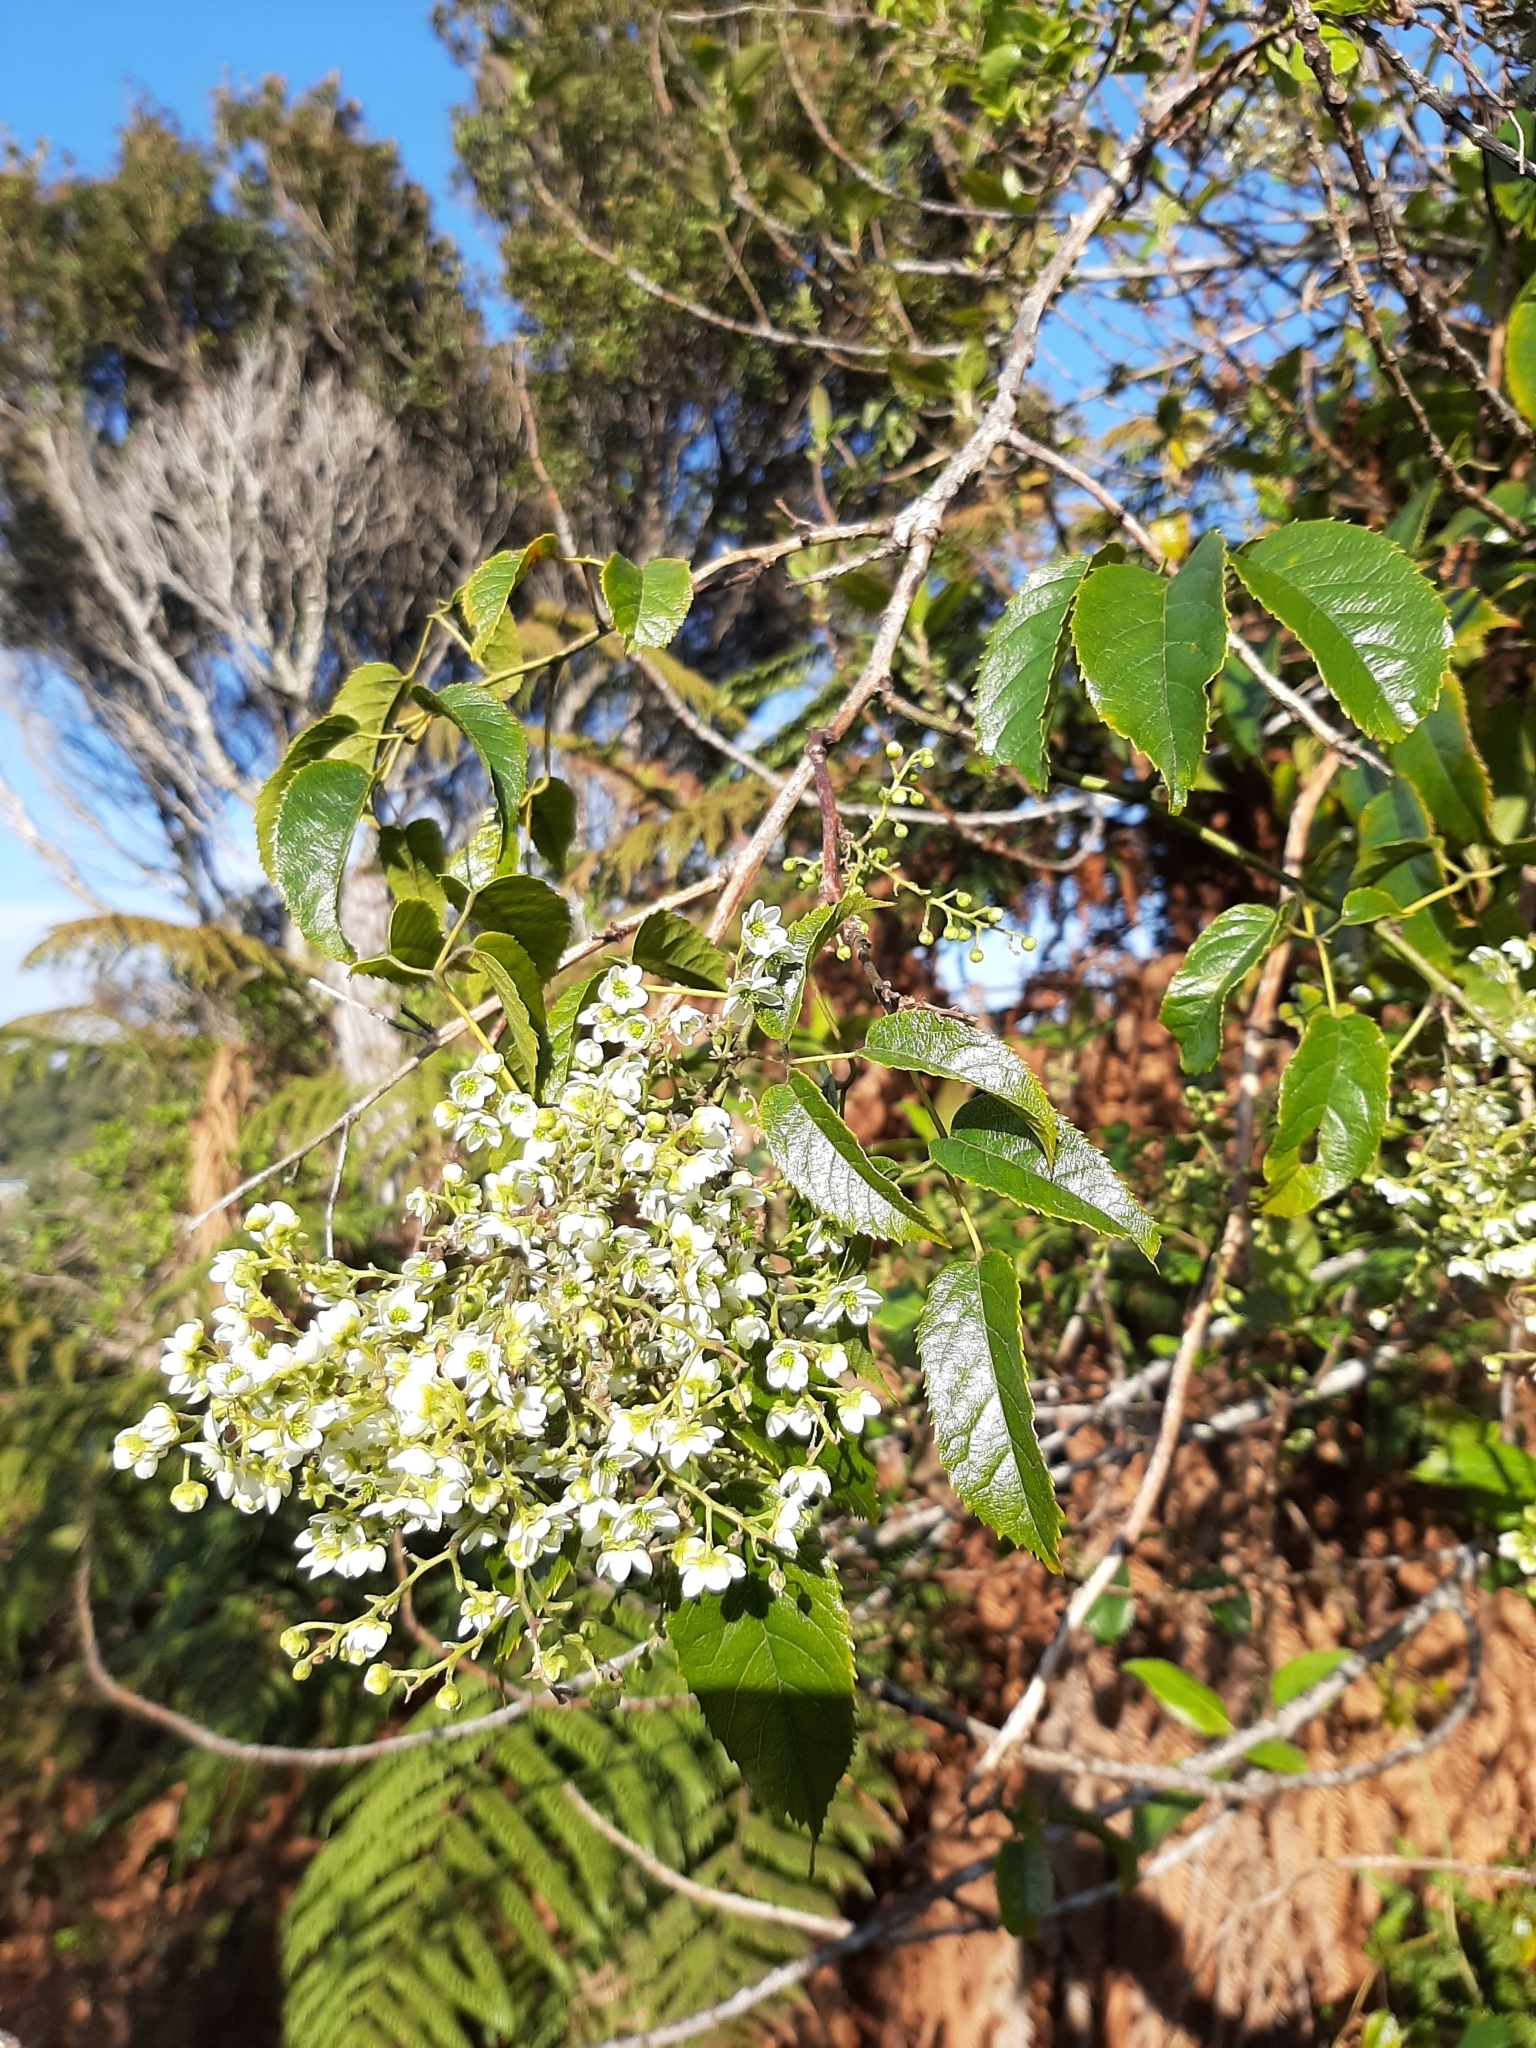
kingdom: Plantae
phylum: Tracheophyta
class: Magnoliopsida
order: Rosales
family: Rosaceae
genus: Rubus
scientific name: Rubus cissoides
